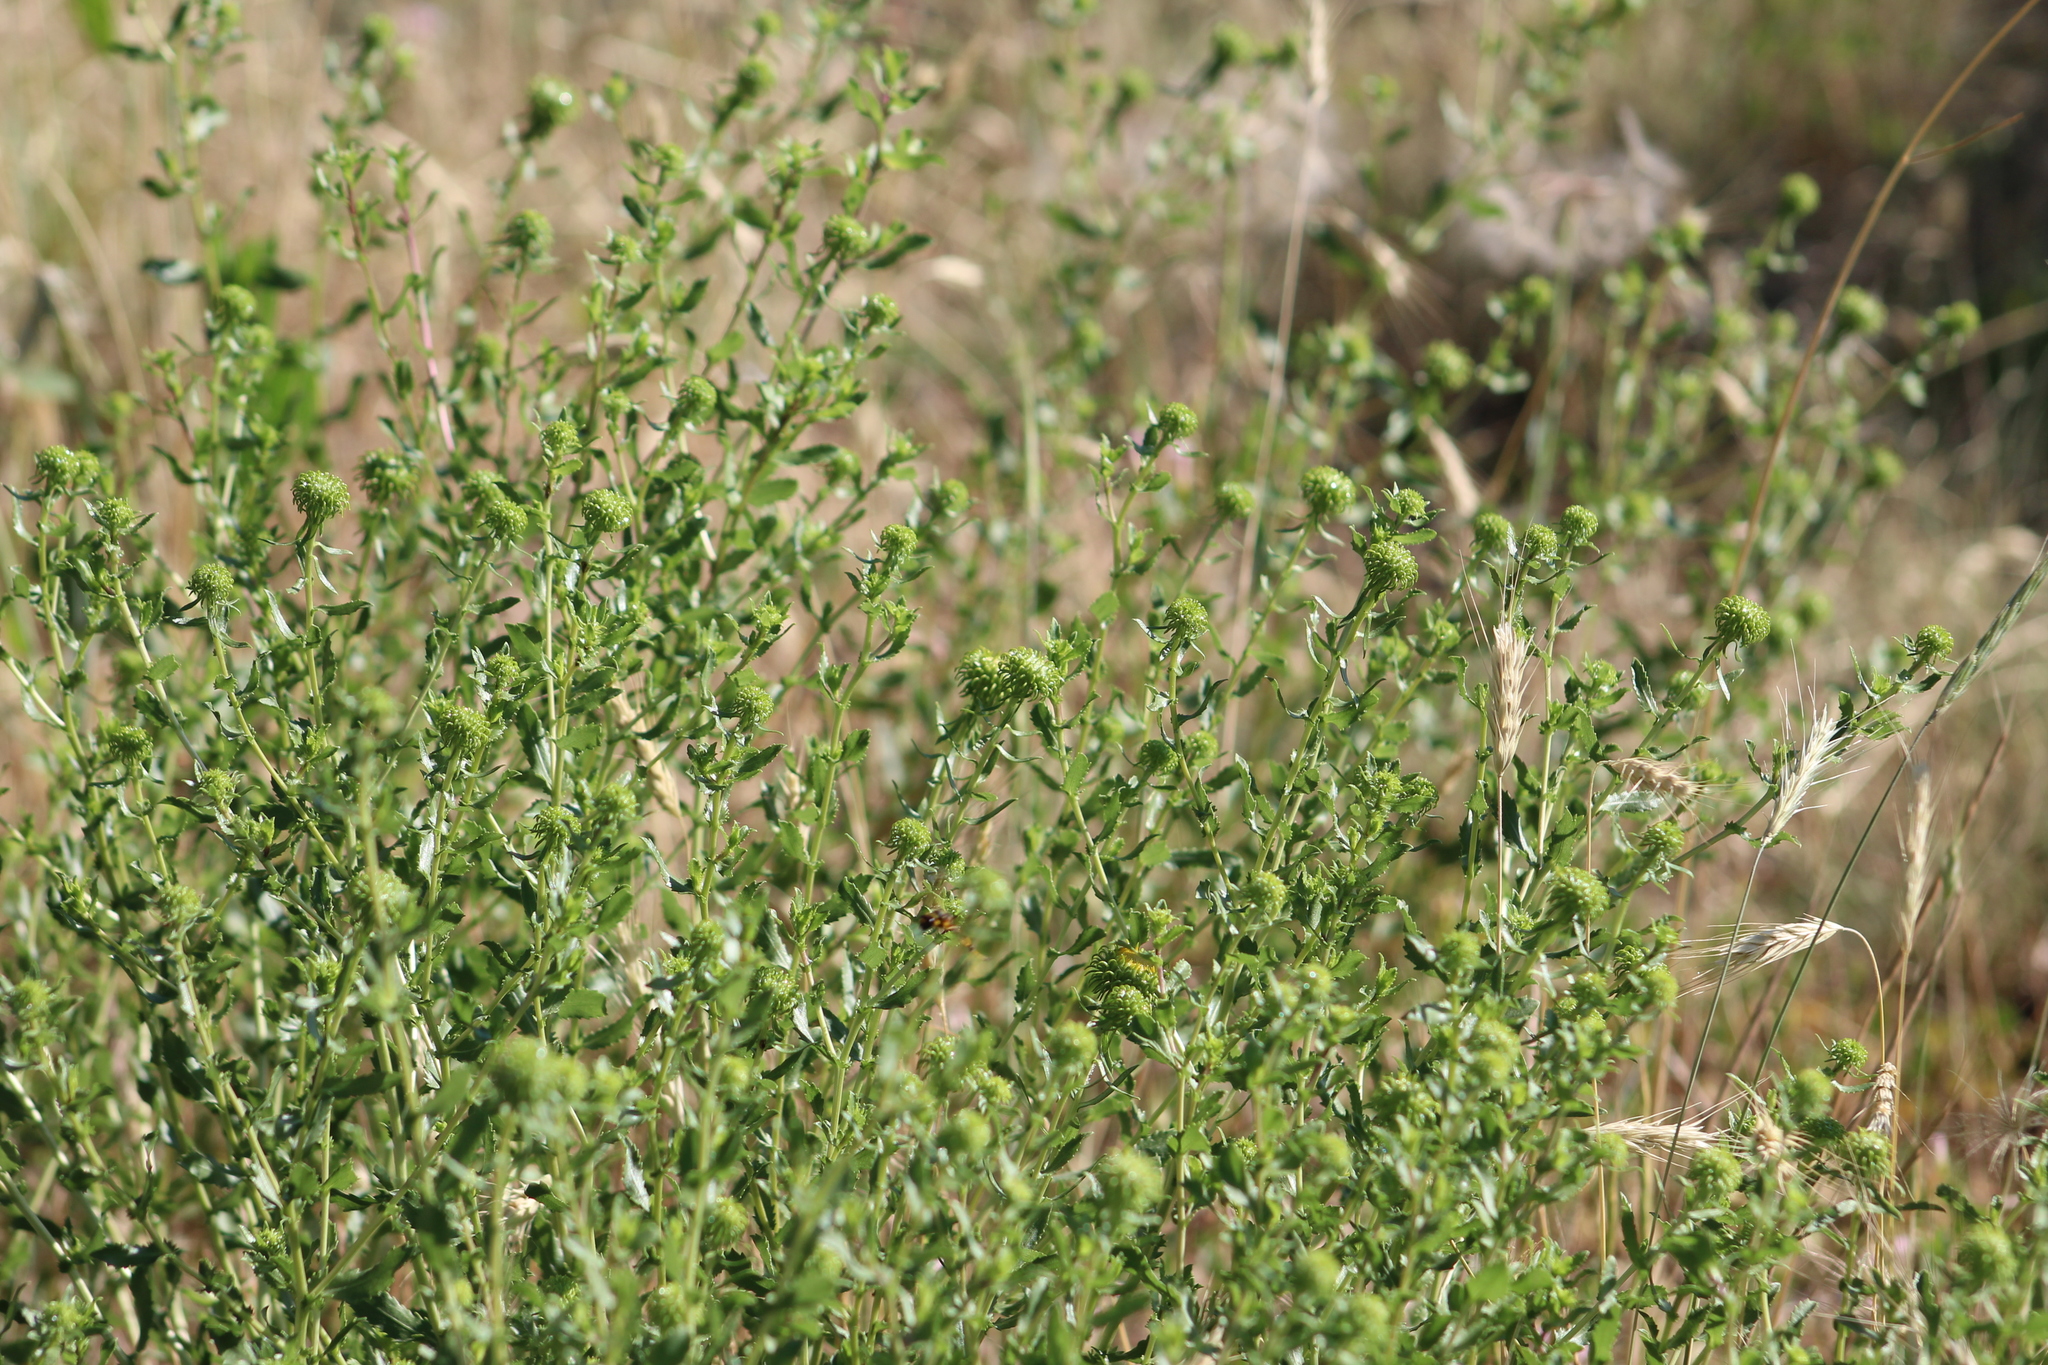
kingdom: Animalia
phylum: Arthropoda
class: Insecta
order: Hymenoptera
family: Sphecidae
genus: Sceliphron
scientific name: Sceliphron caementarium
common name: Mud dauber
